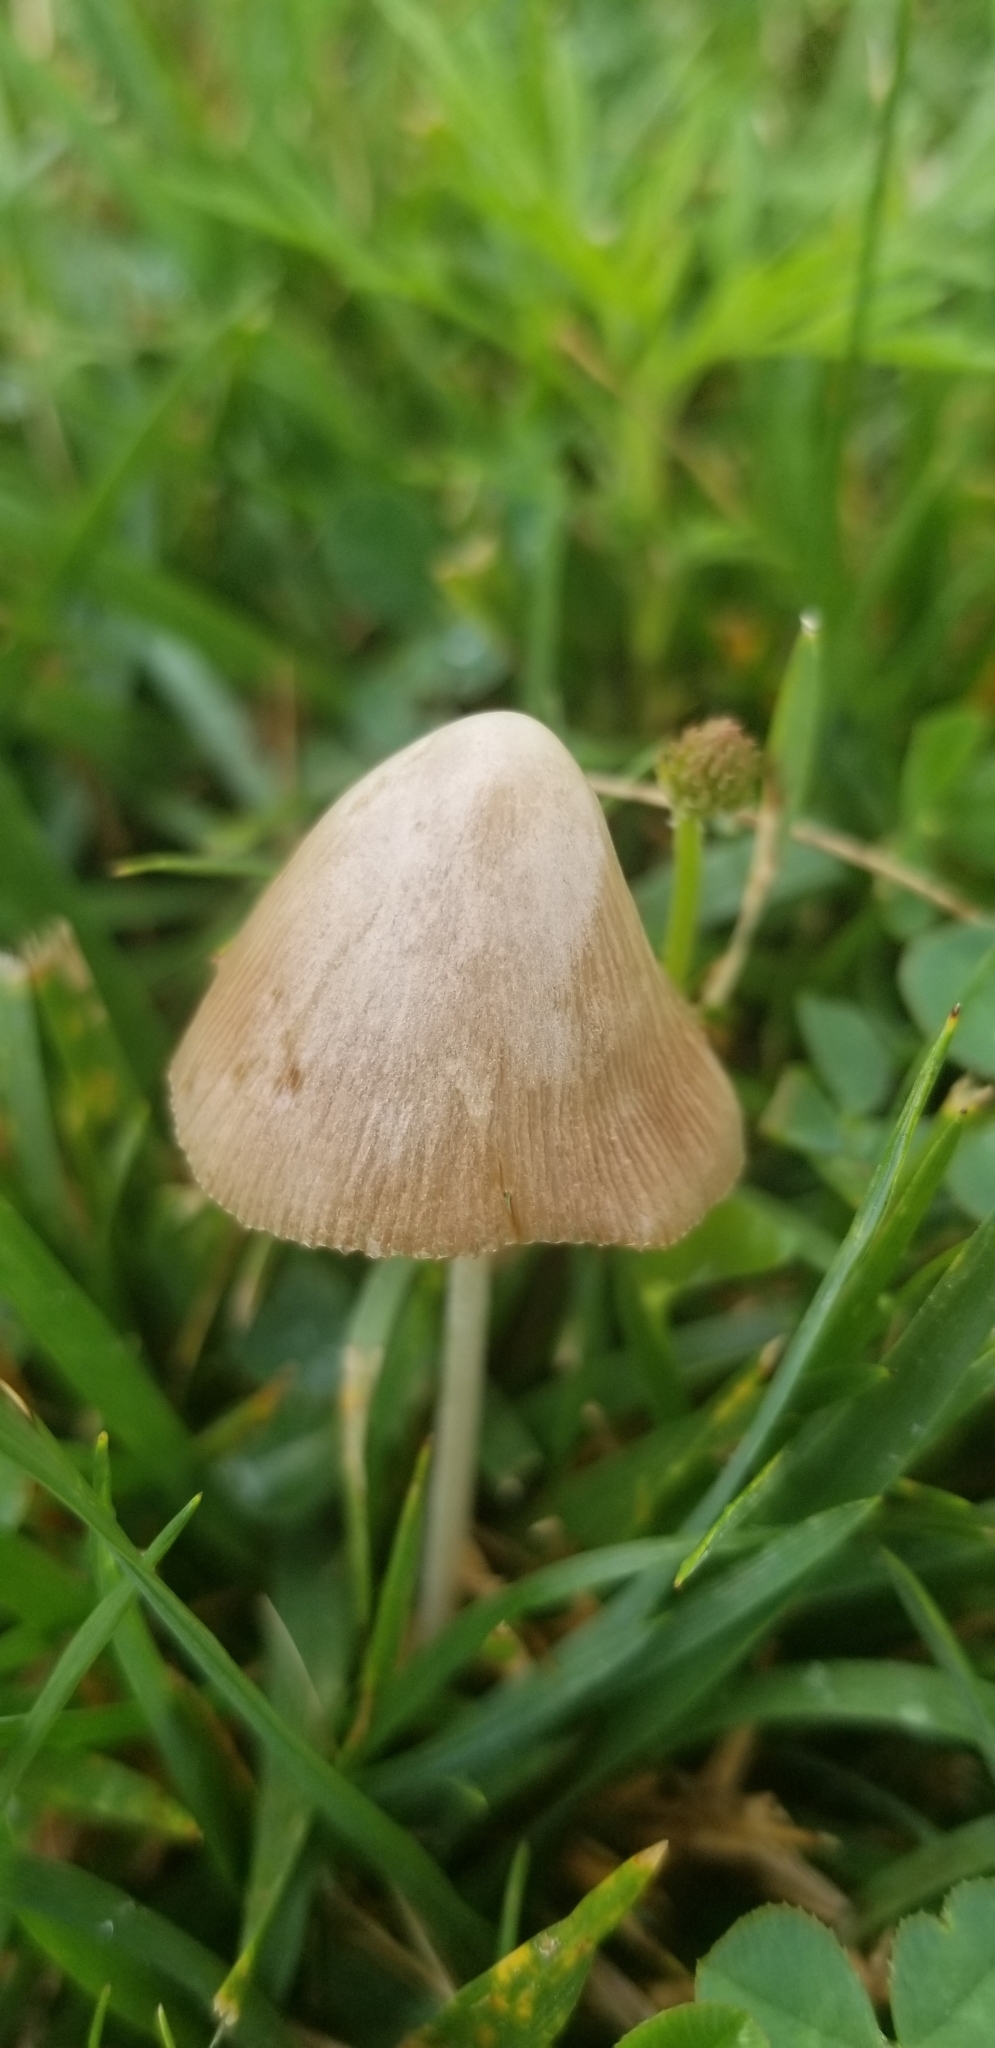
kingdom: Fungi
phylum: Basidiomycota
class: Agaricomycetes
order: Agaricales
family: Bolbitiaceae
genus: Conocybe
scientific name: Conocybe apala
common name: Milky conecap
